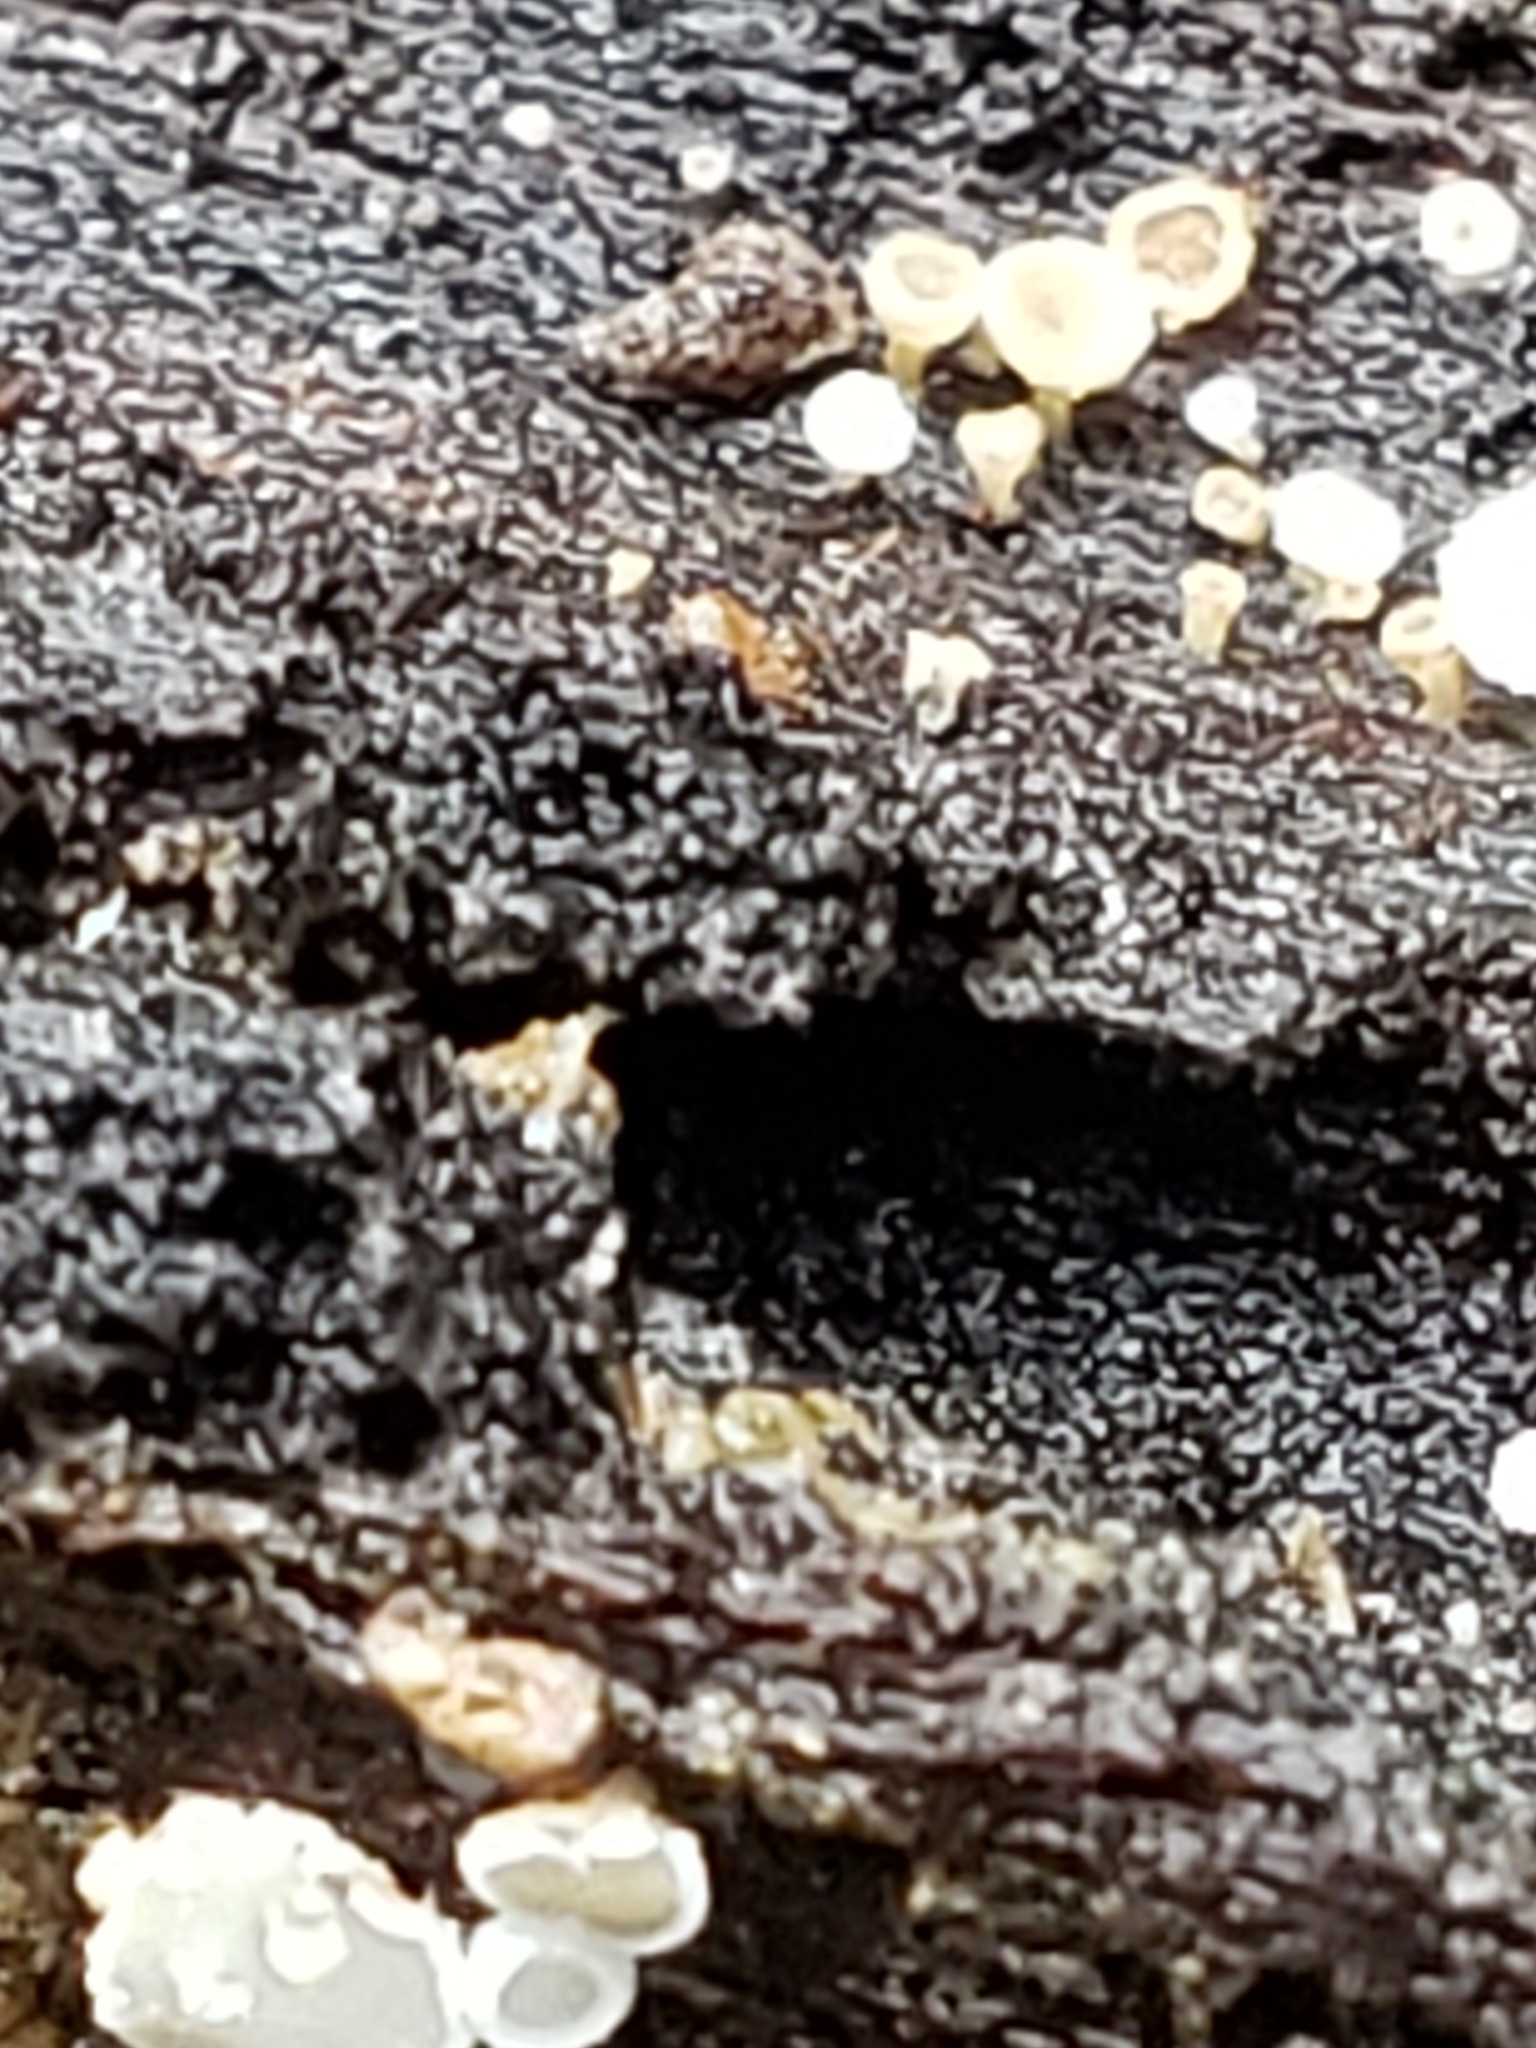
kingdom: Fungi
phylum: Ascomycota
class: Leotiomycetes
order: Helotiales
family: Lachnaceae
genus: Lachnum
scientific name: Lachnum virgineum
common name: Snowy disco
